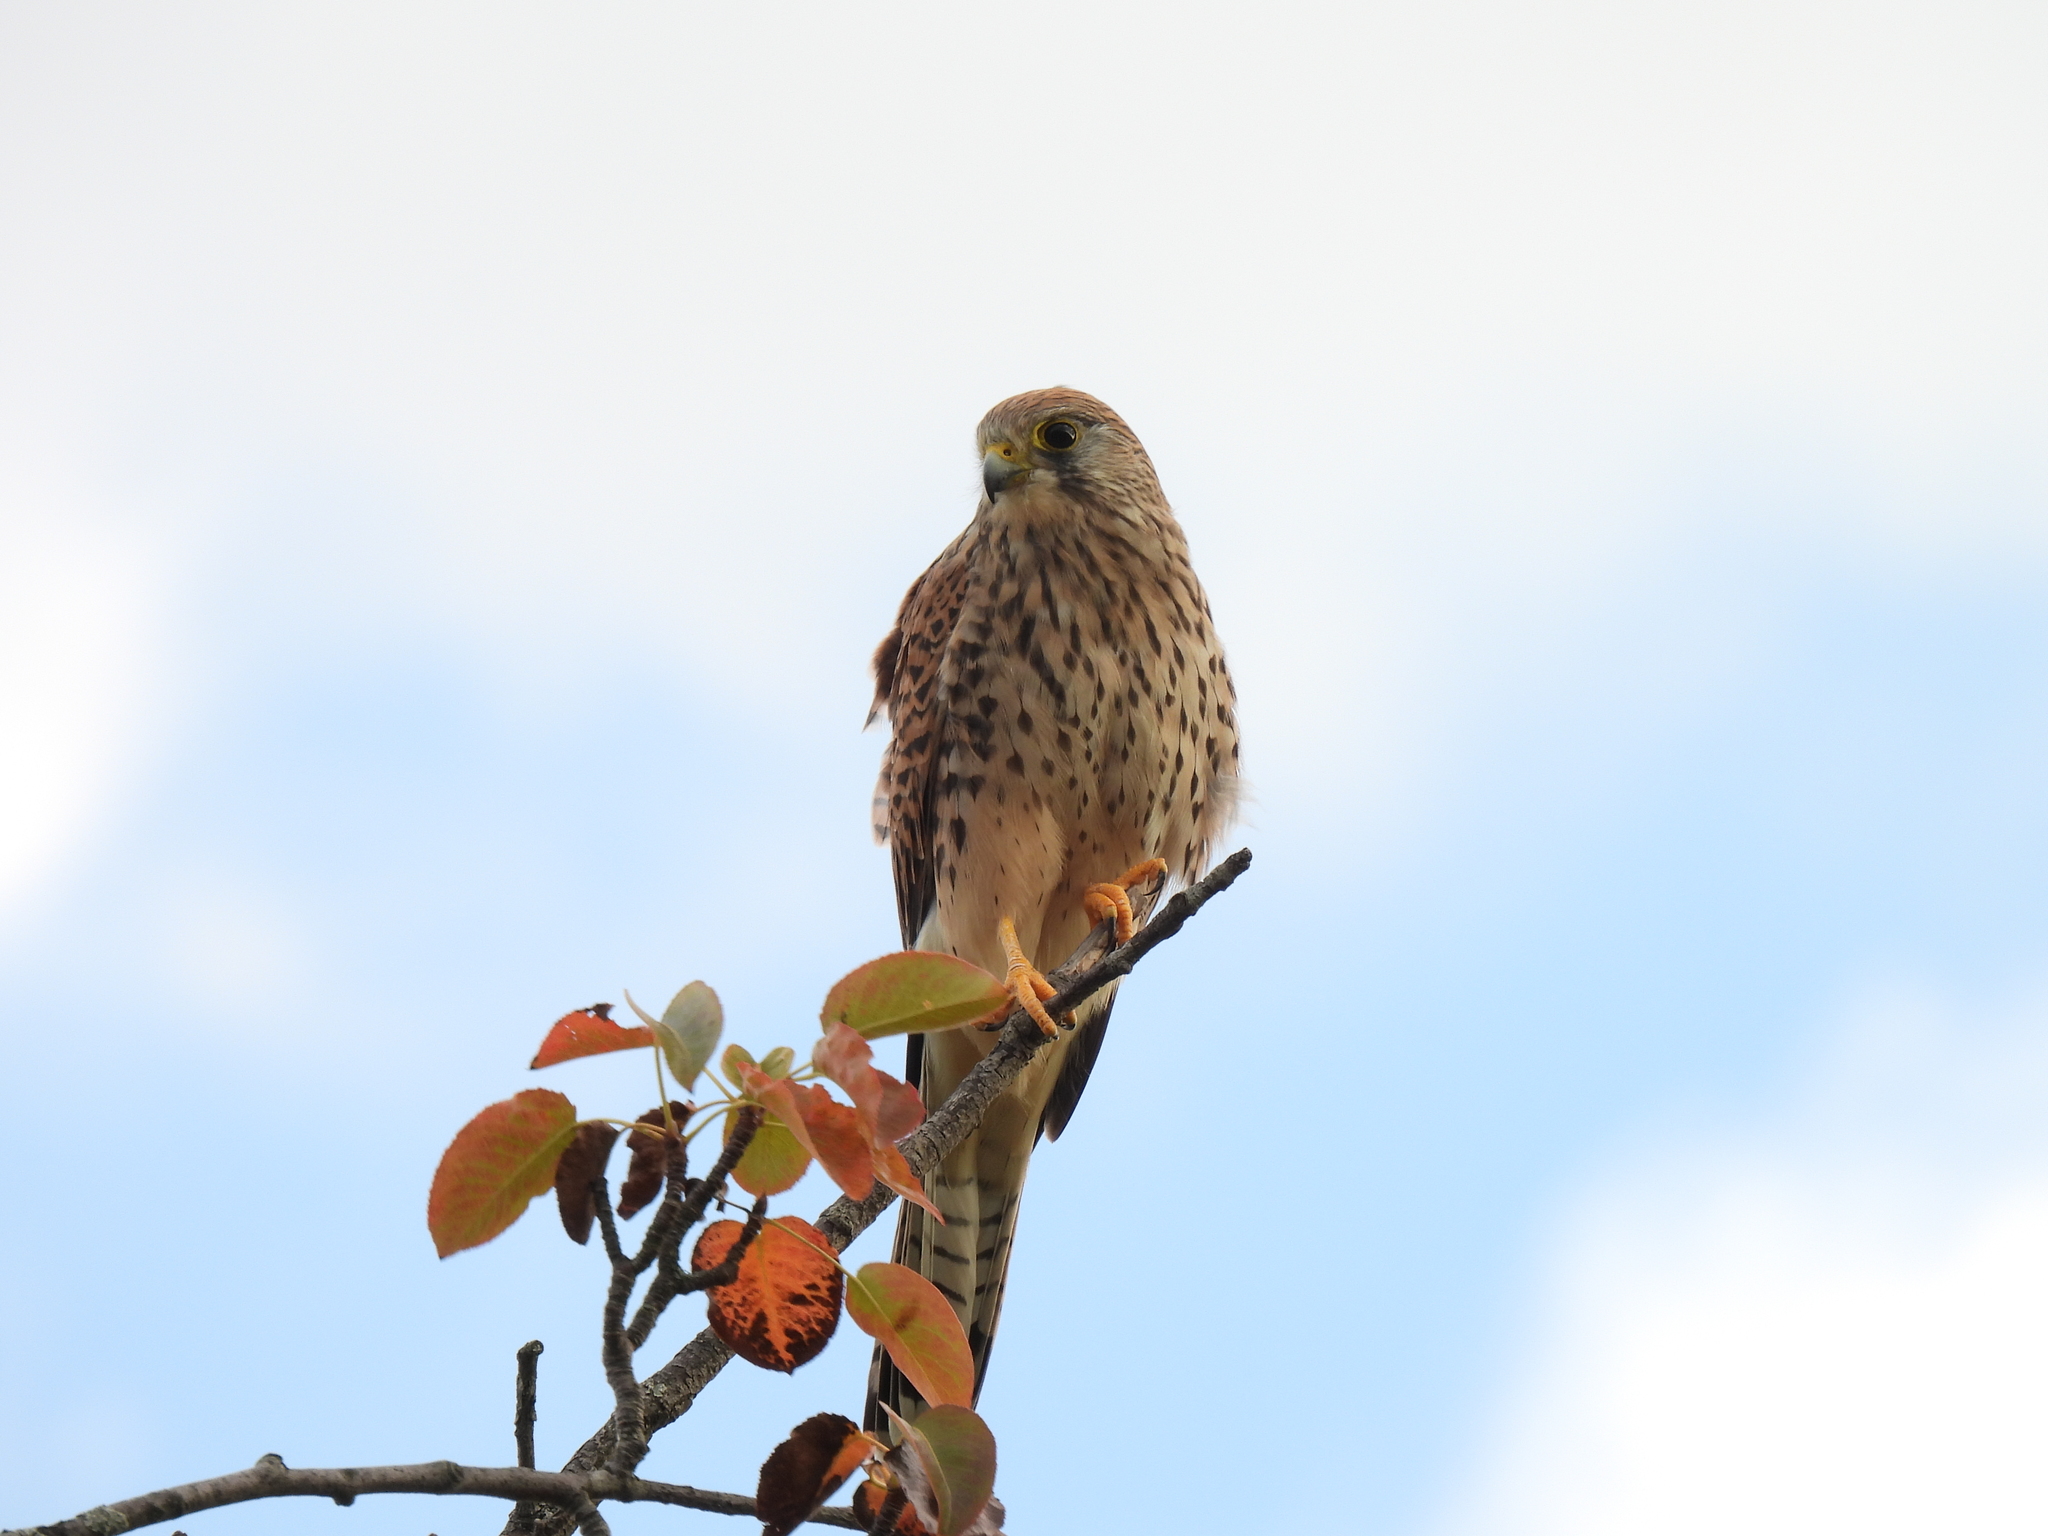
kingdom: Animalia
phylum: Chordata
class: Aves
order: Falconiformes
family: Falconidae
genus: Falco
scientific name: Falco tinnunculus
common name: Common kestrel
